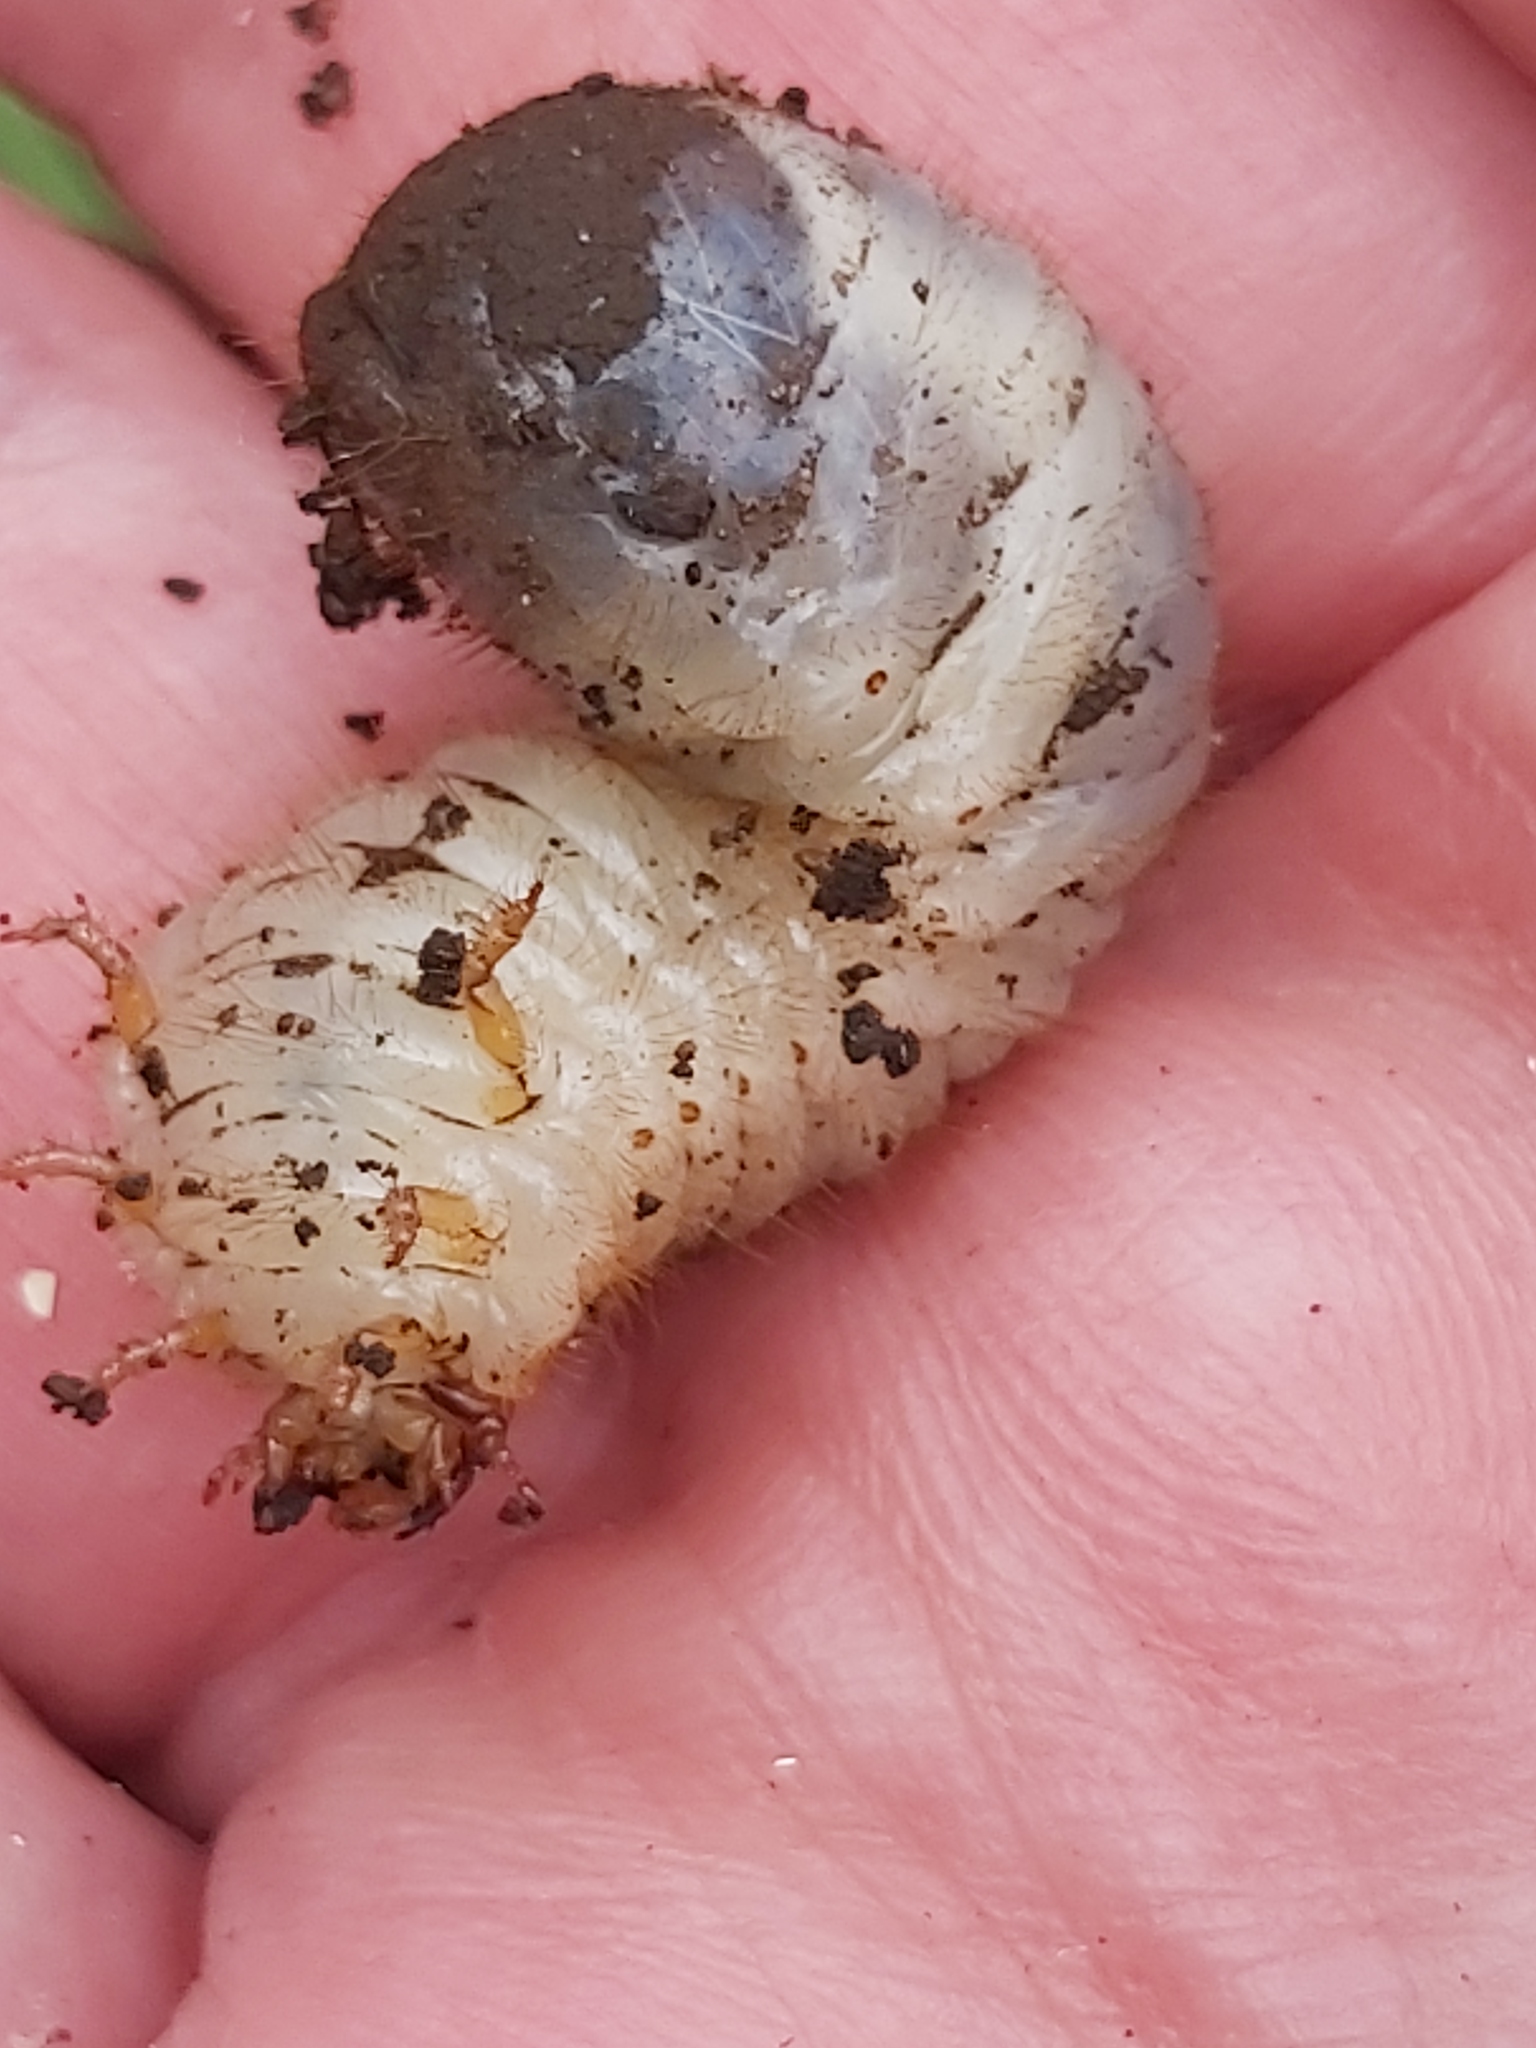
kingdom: Animalia
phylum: Arthropoda
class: Insecta
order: Coleoptera
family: Scarabaeidae
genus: Cetonia
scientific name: Cetonia aurata
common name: Rose chafer
